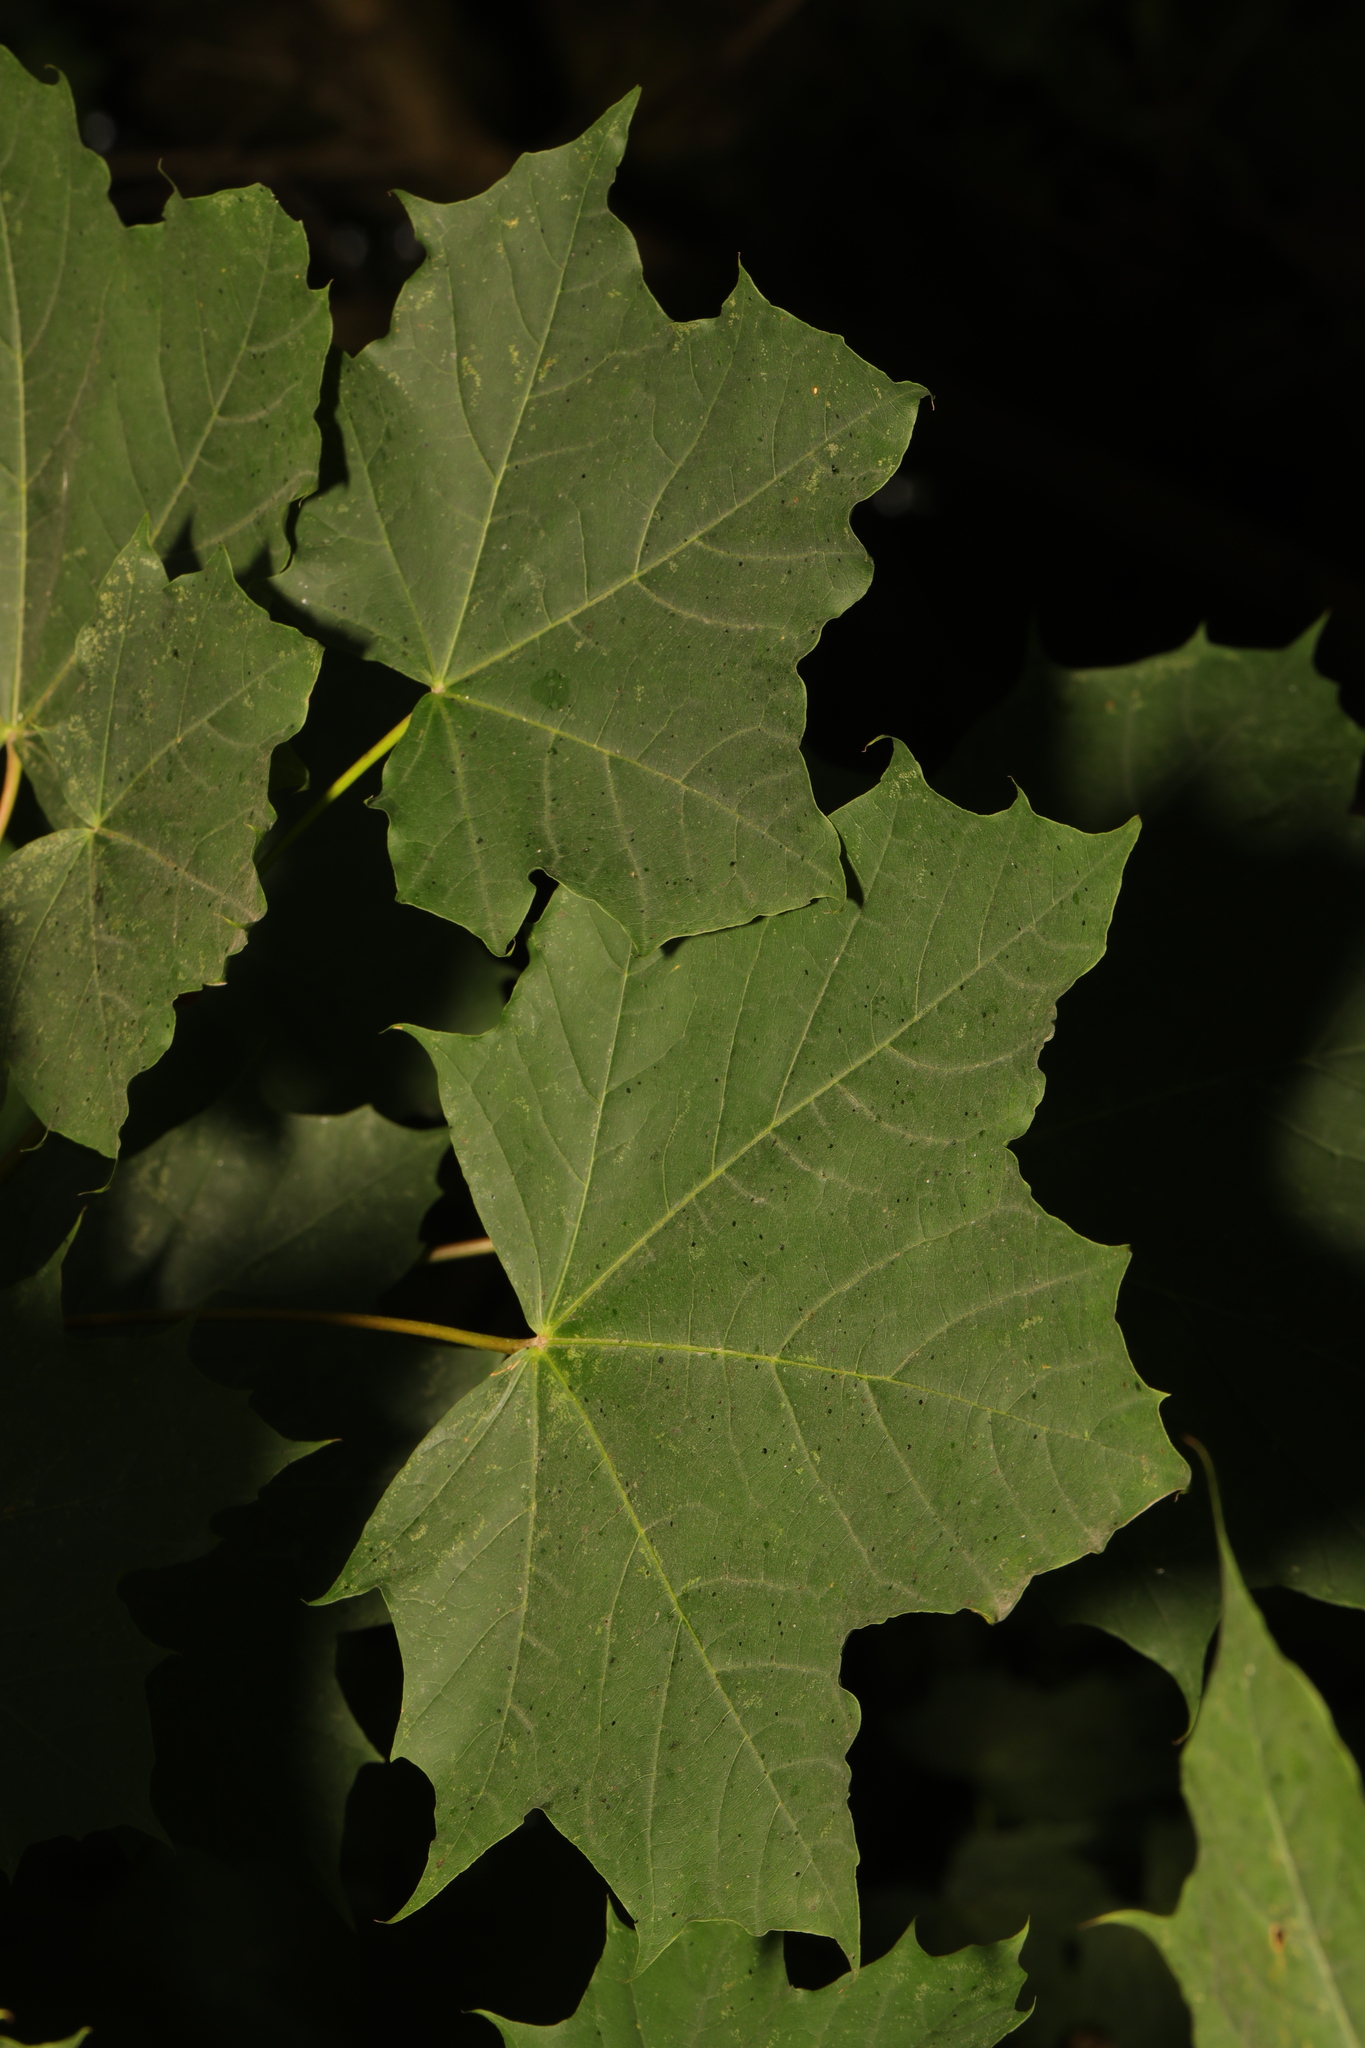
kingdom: Plantae
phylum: Tracheophyta
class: Magnoliopsida
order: Sapindales
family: Sapindaceae
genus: Acer
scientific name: Acer platanoides
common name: Norway maple
